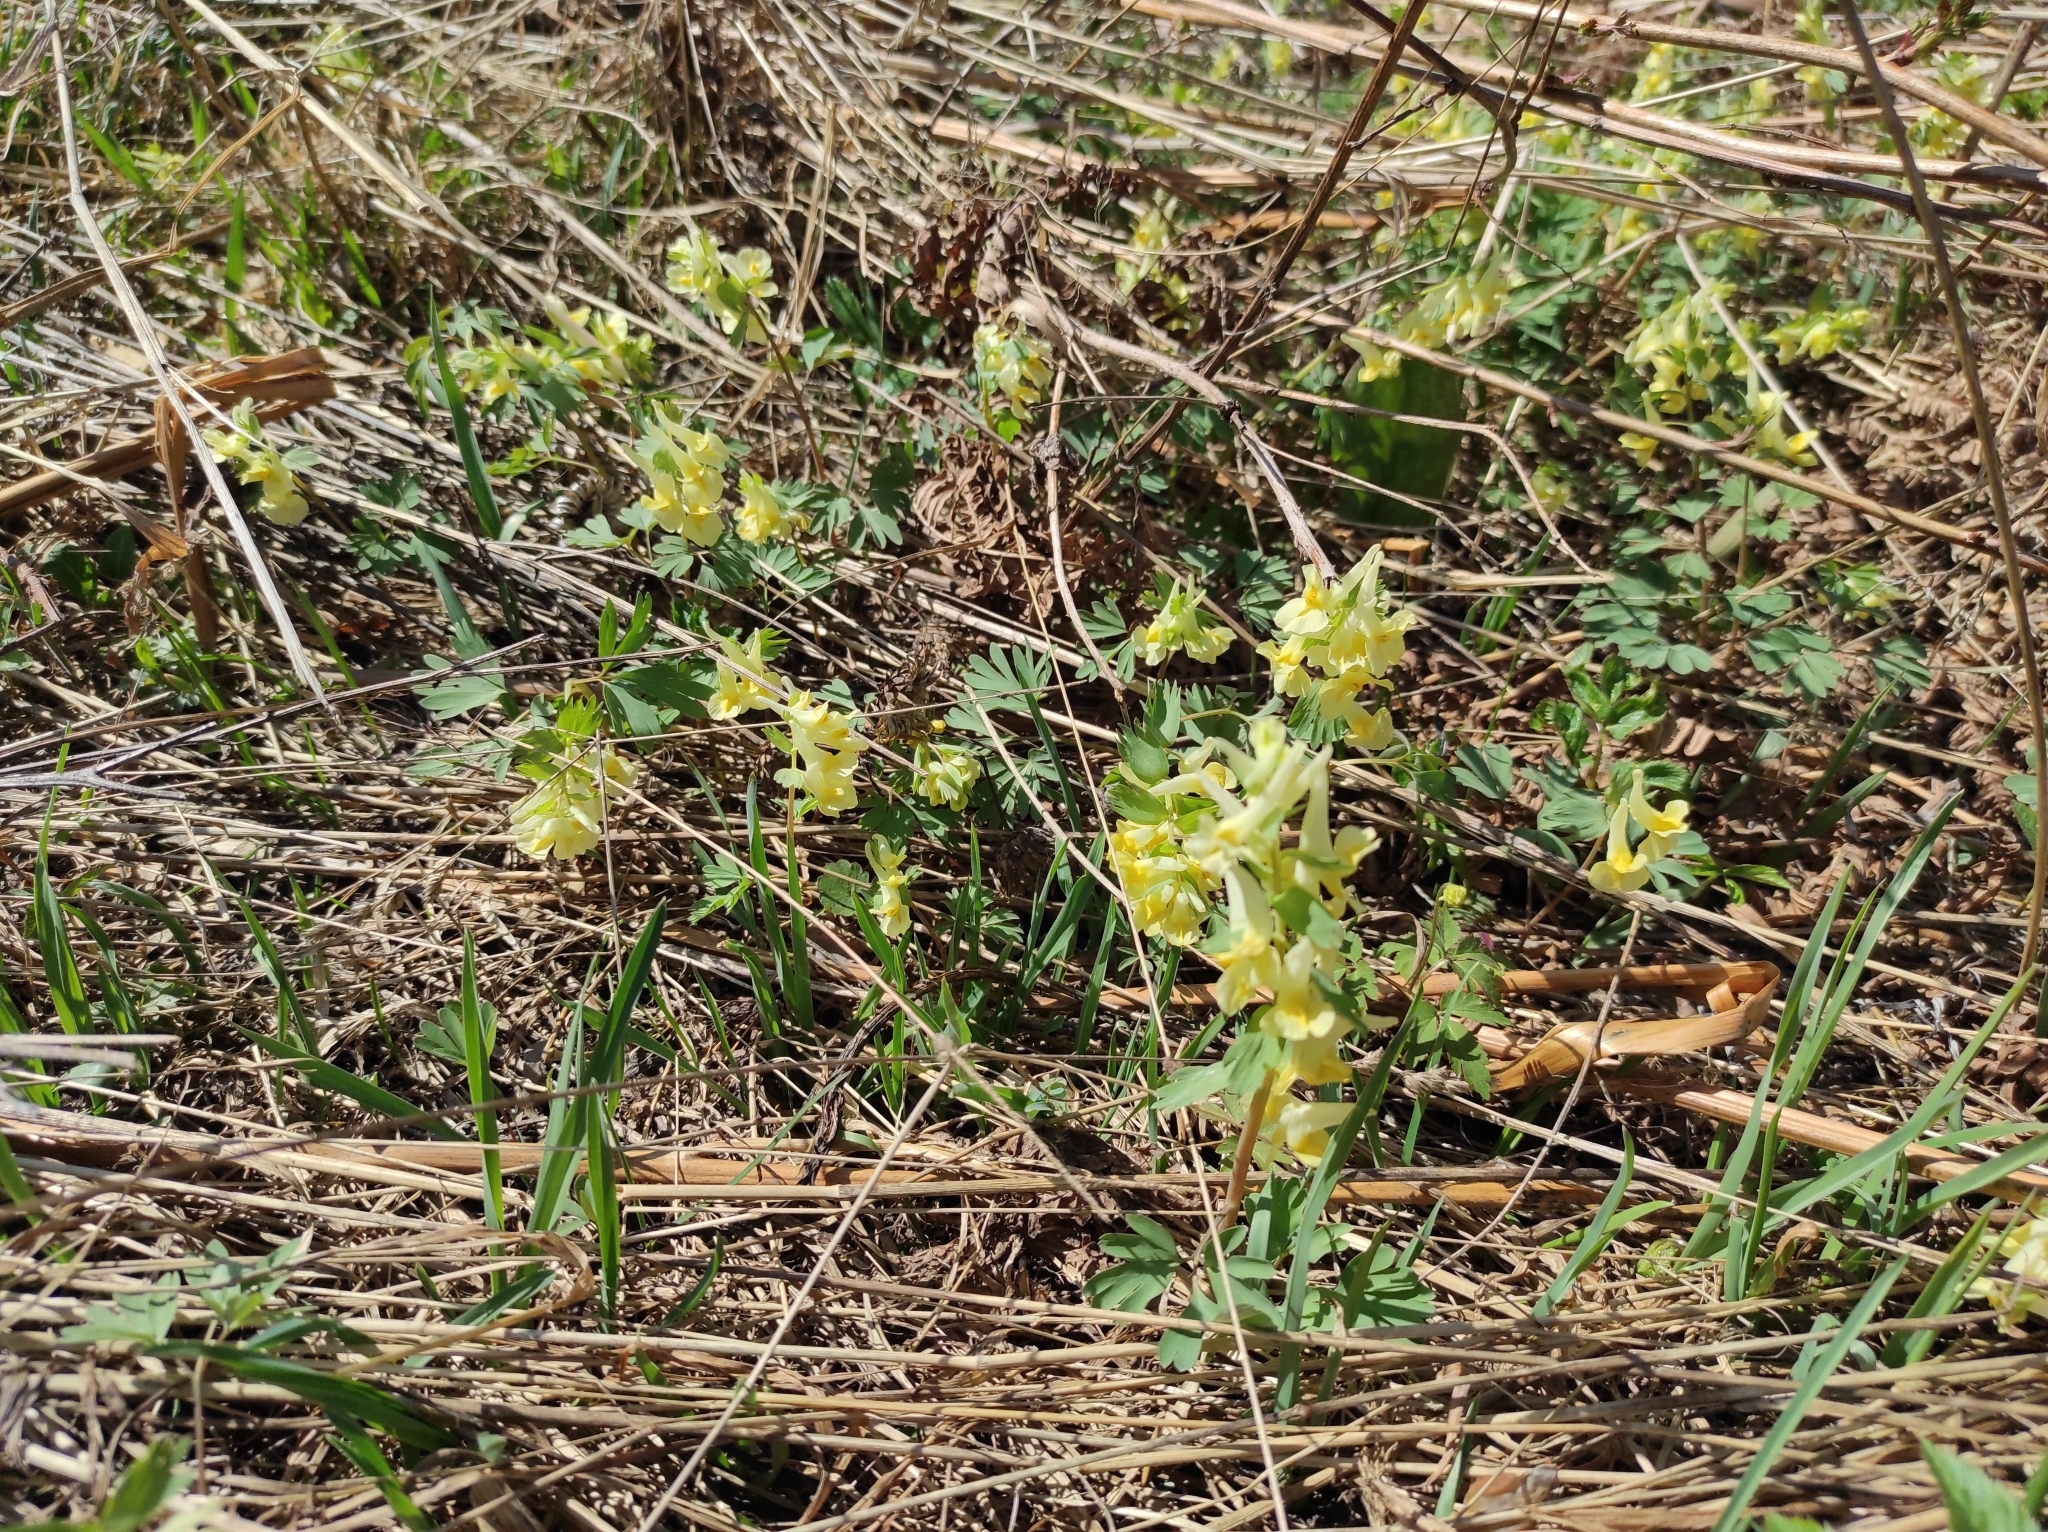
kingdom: Plantae
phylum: Tracheophyta
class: Magnoliopsida
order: Ranunculales
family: Papaveraceae
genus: Corydalis
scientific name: Corydalis bracteata
